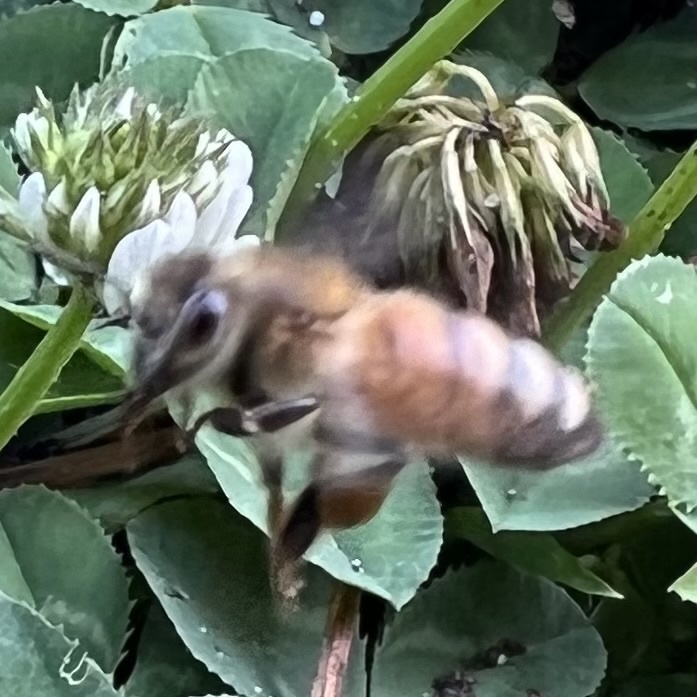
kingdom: Animalia
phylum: Arthropoda
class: Insecta
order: Hymenoptera
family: Apidae
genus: Apis
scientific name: Apis mellifera
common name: Honey bee
